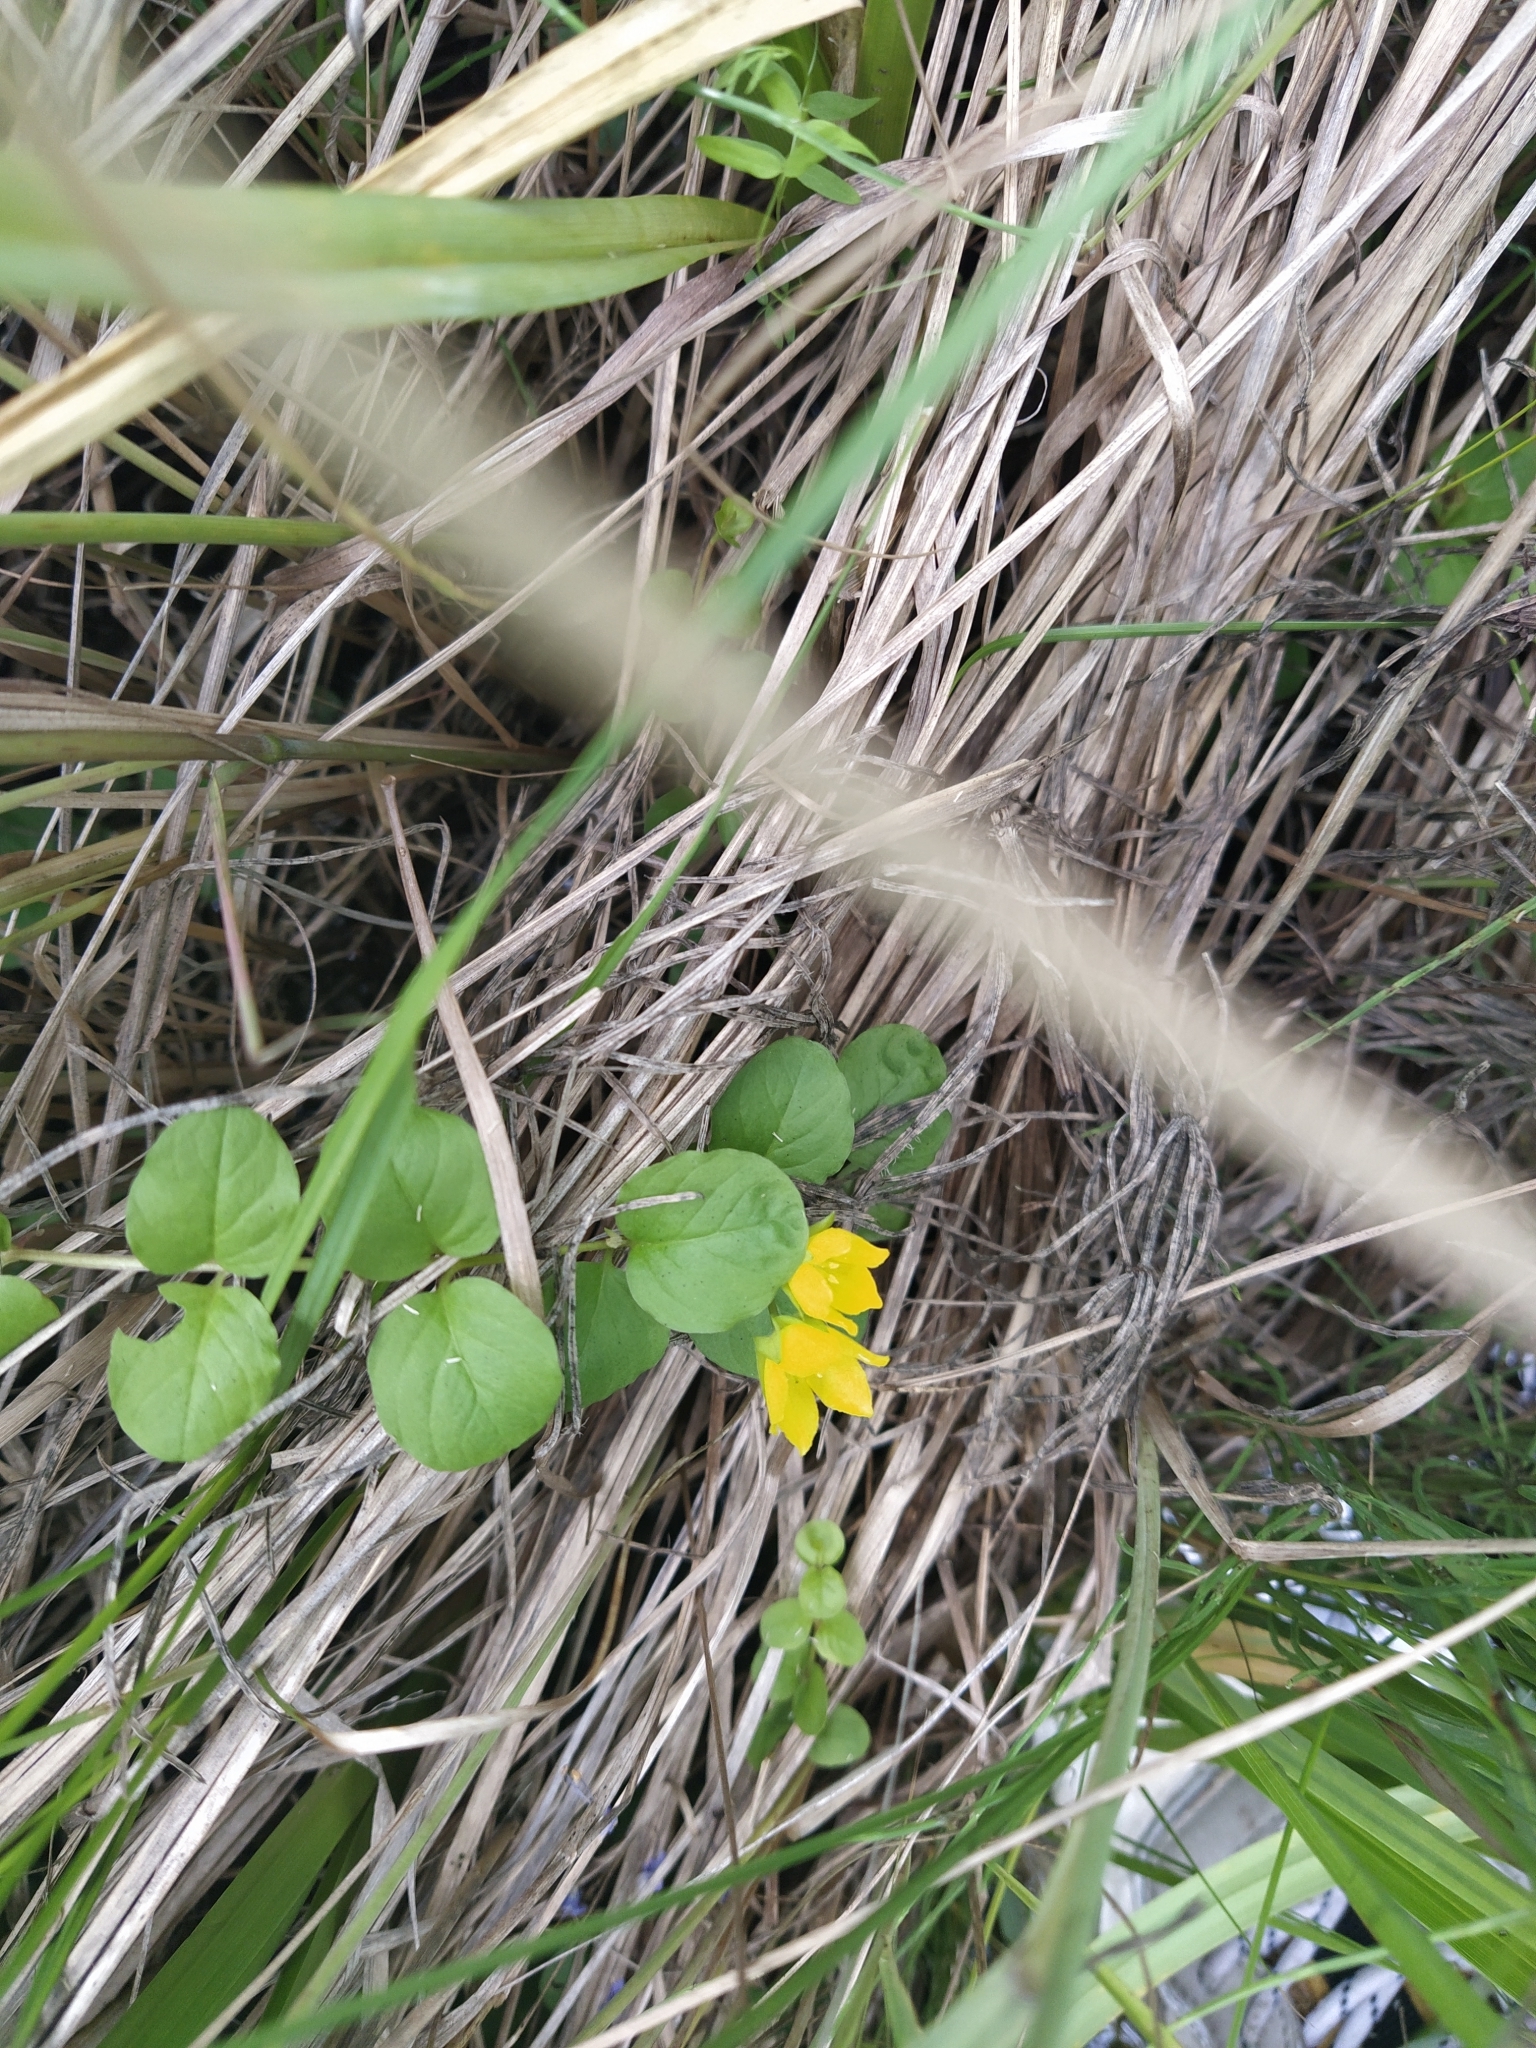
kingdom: Plantae
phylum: Tracheophyta
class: Magnoliopsida
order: Ericales
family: Primulaceae
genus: Lysimachia
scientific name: Lysimachia nummularia
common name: Moneywort
